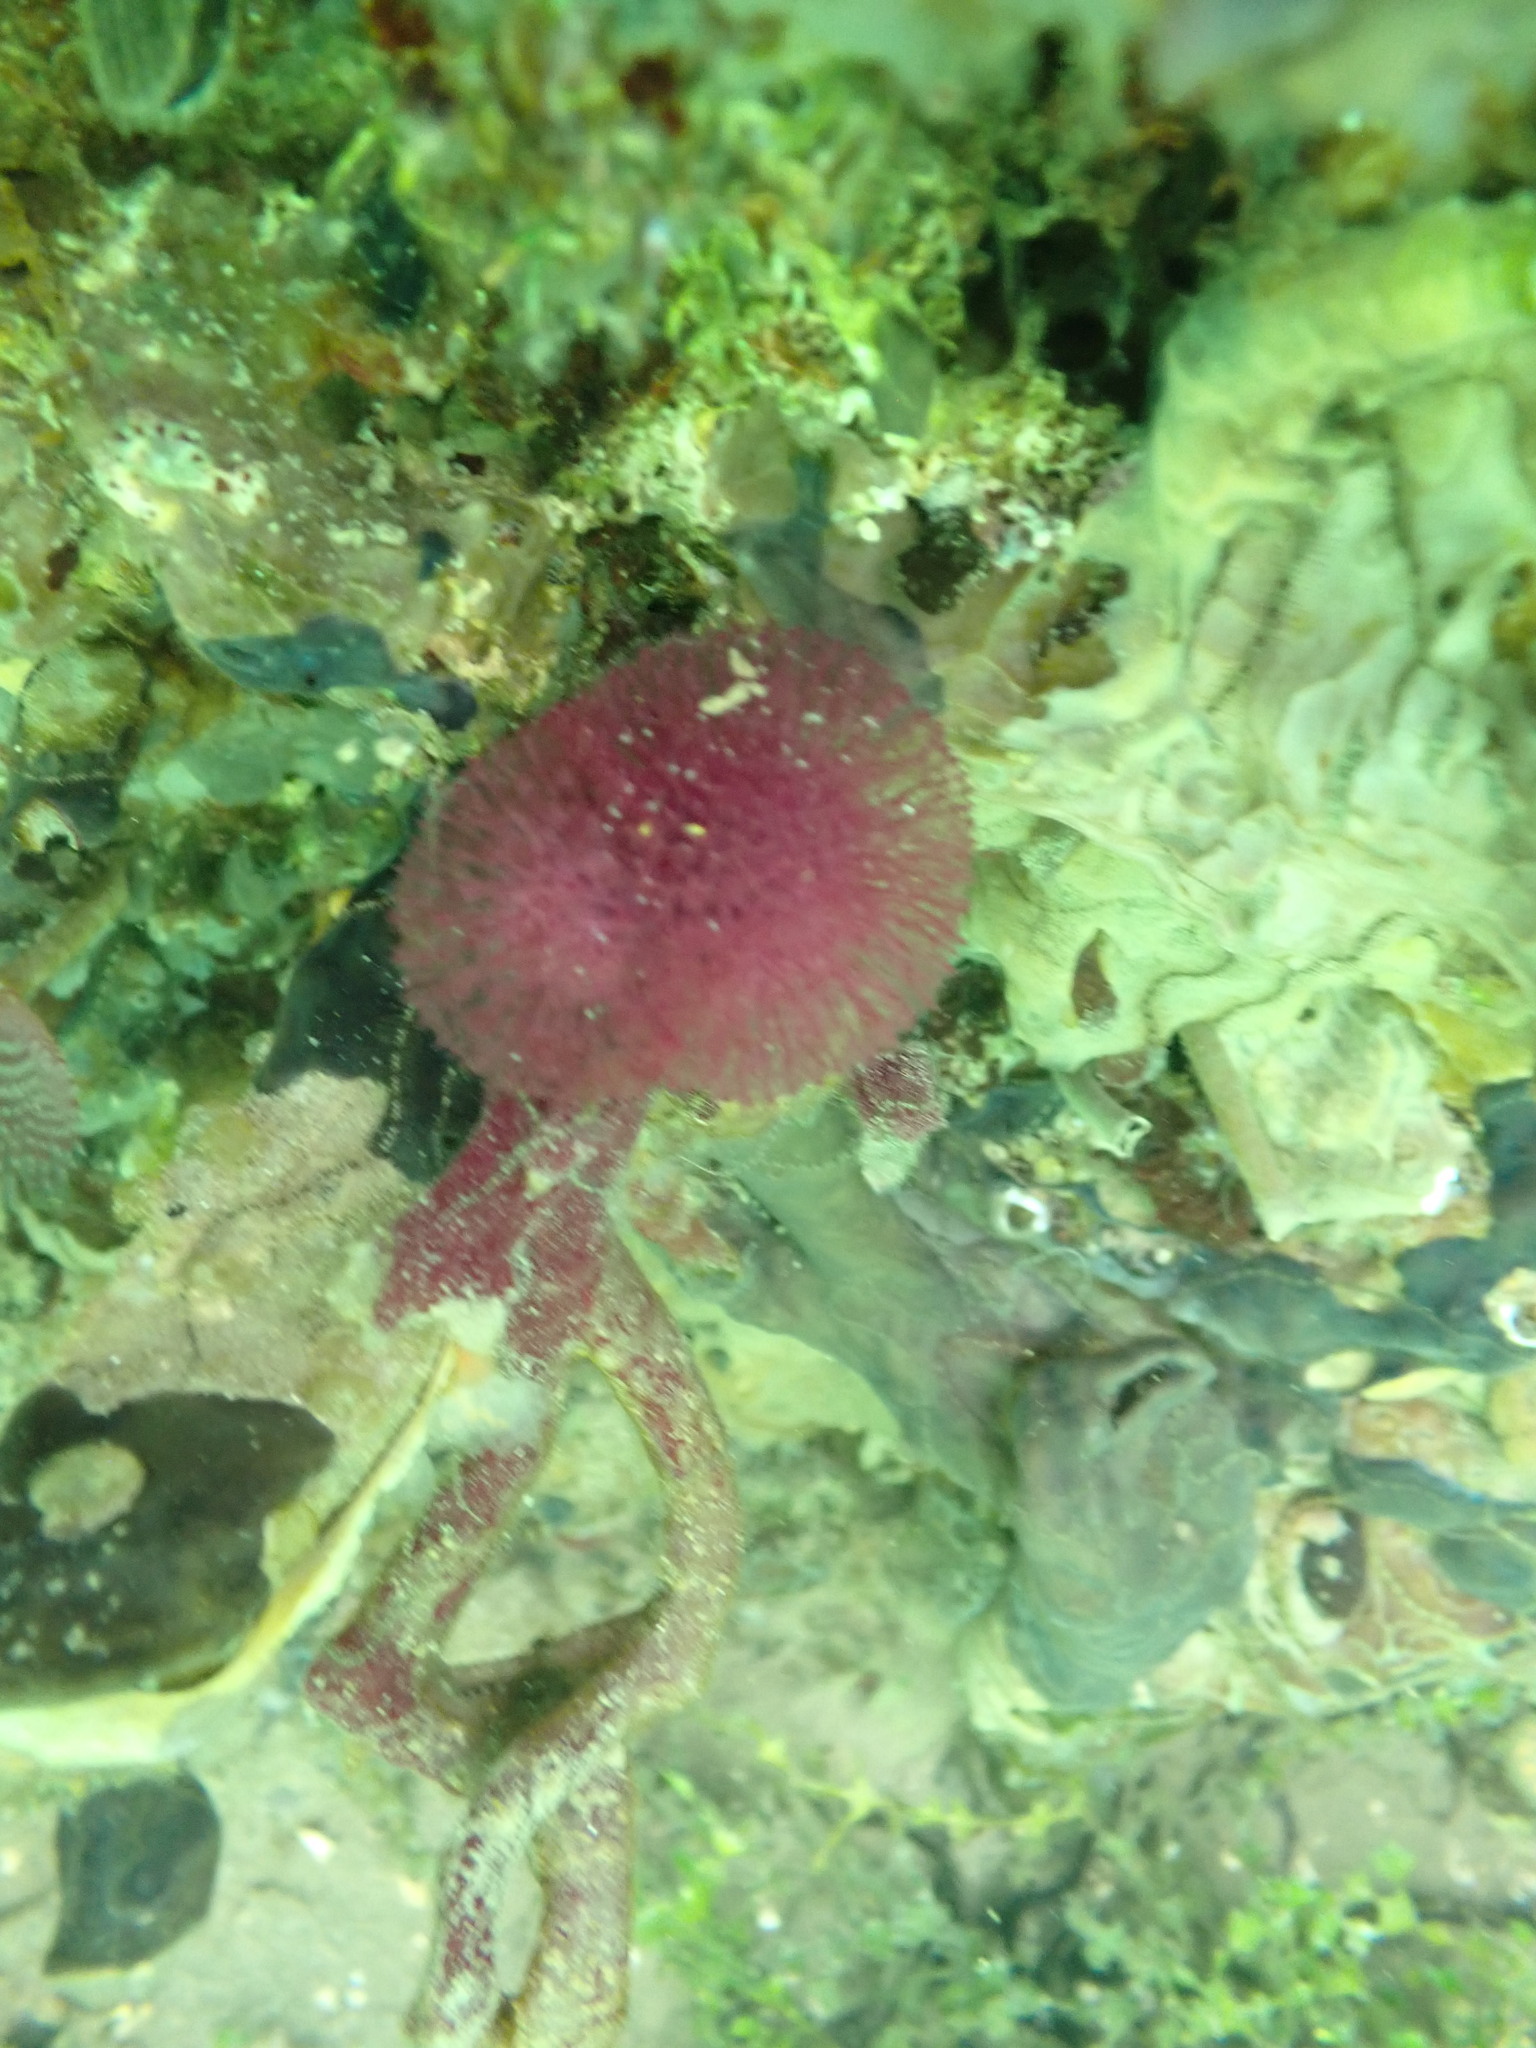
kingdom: Animalia
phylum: Porifera
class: Demospongiae
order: Haplosclerida
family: Phloeodictyidae
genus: Oceanapia
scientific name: Oceanapia sagittaria
